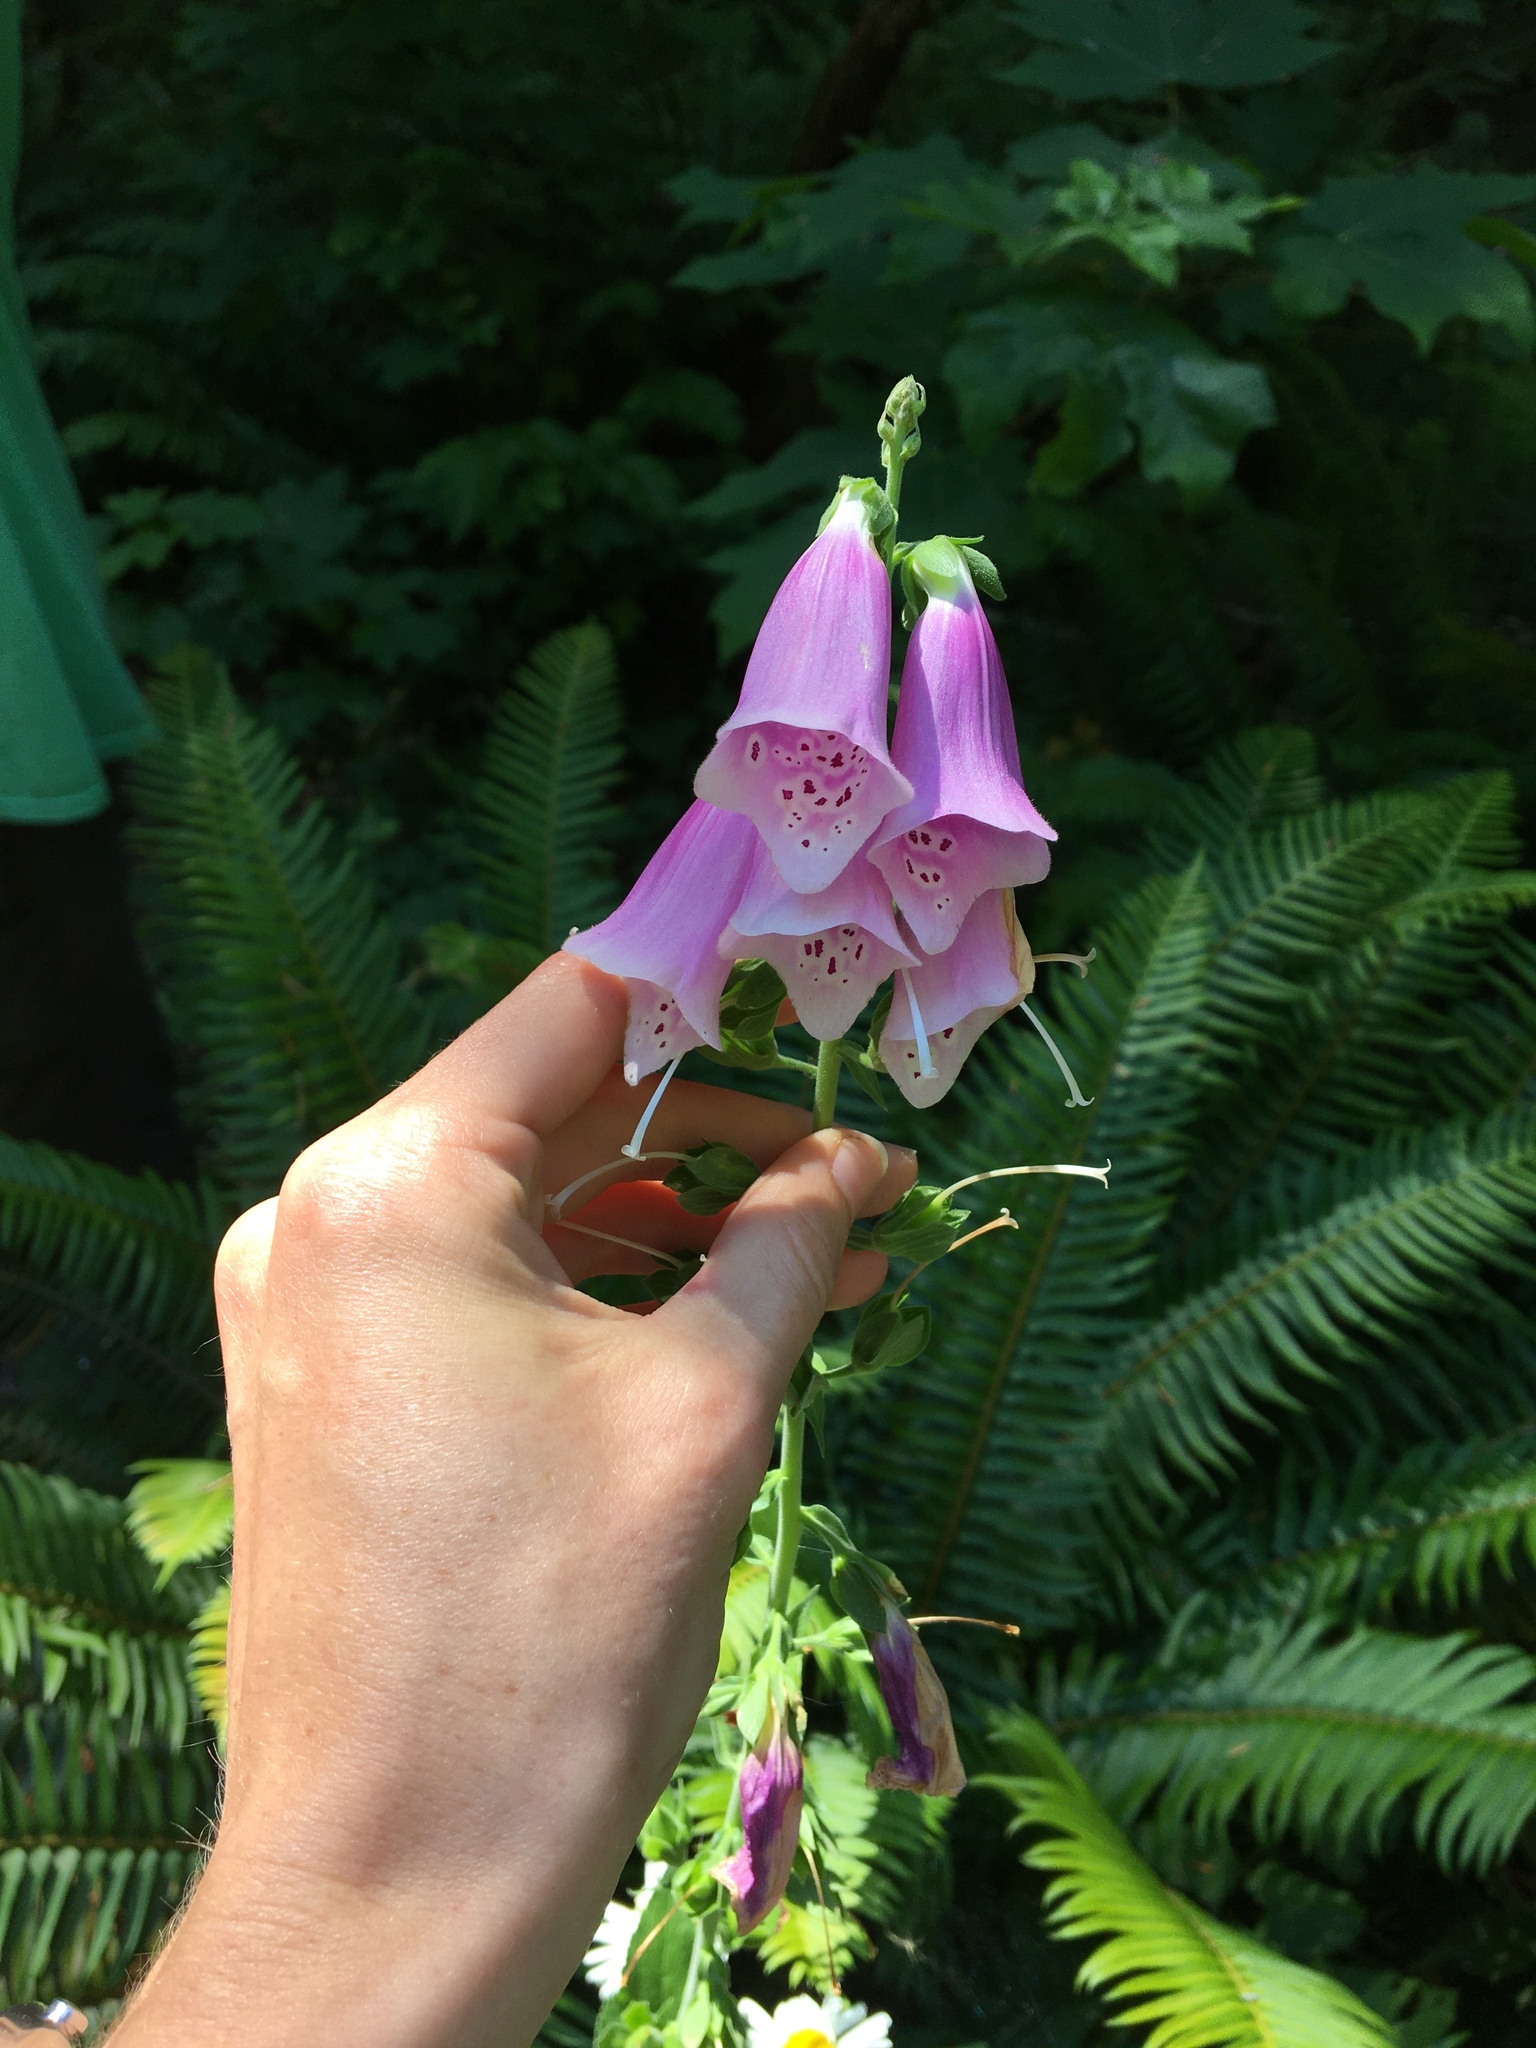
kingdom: Plantae
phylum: Tracheophyta
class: Magnoliopsida
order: Lamiales
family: Plantaginaceae
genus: Digitalis
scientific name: Digitalis purpurea
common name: Foxglove
